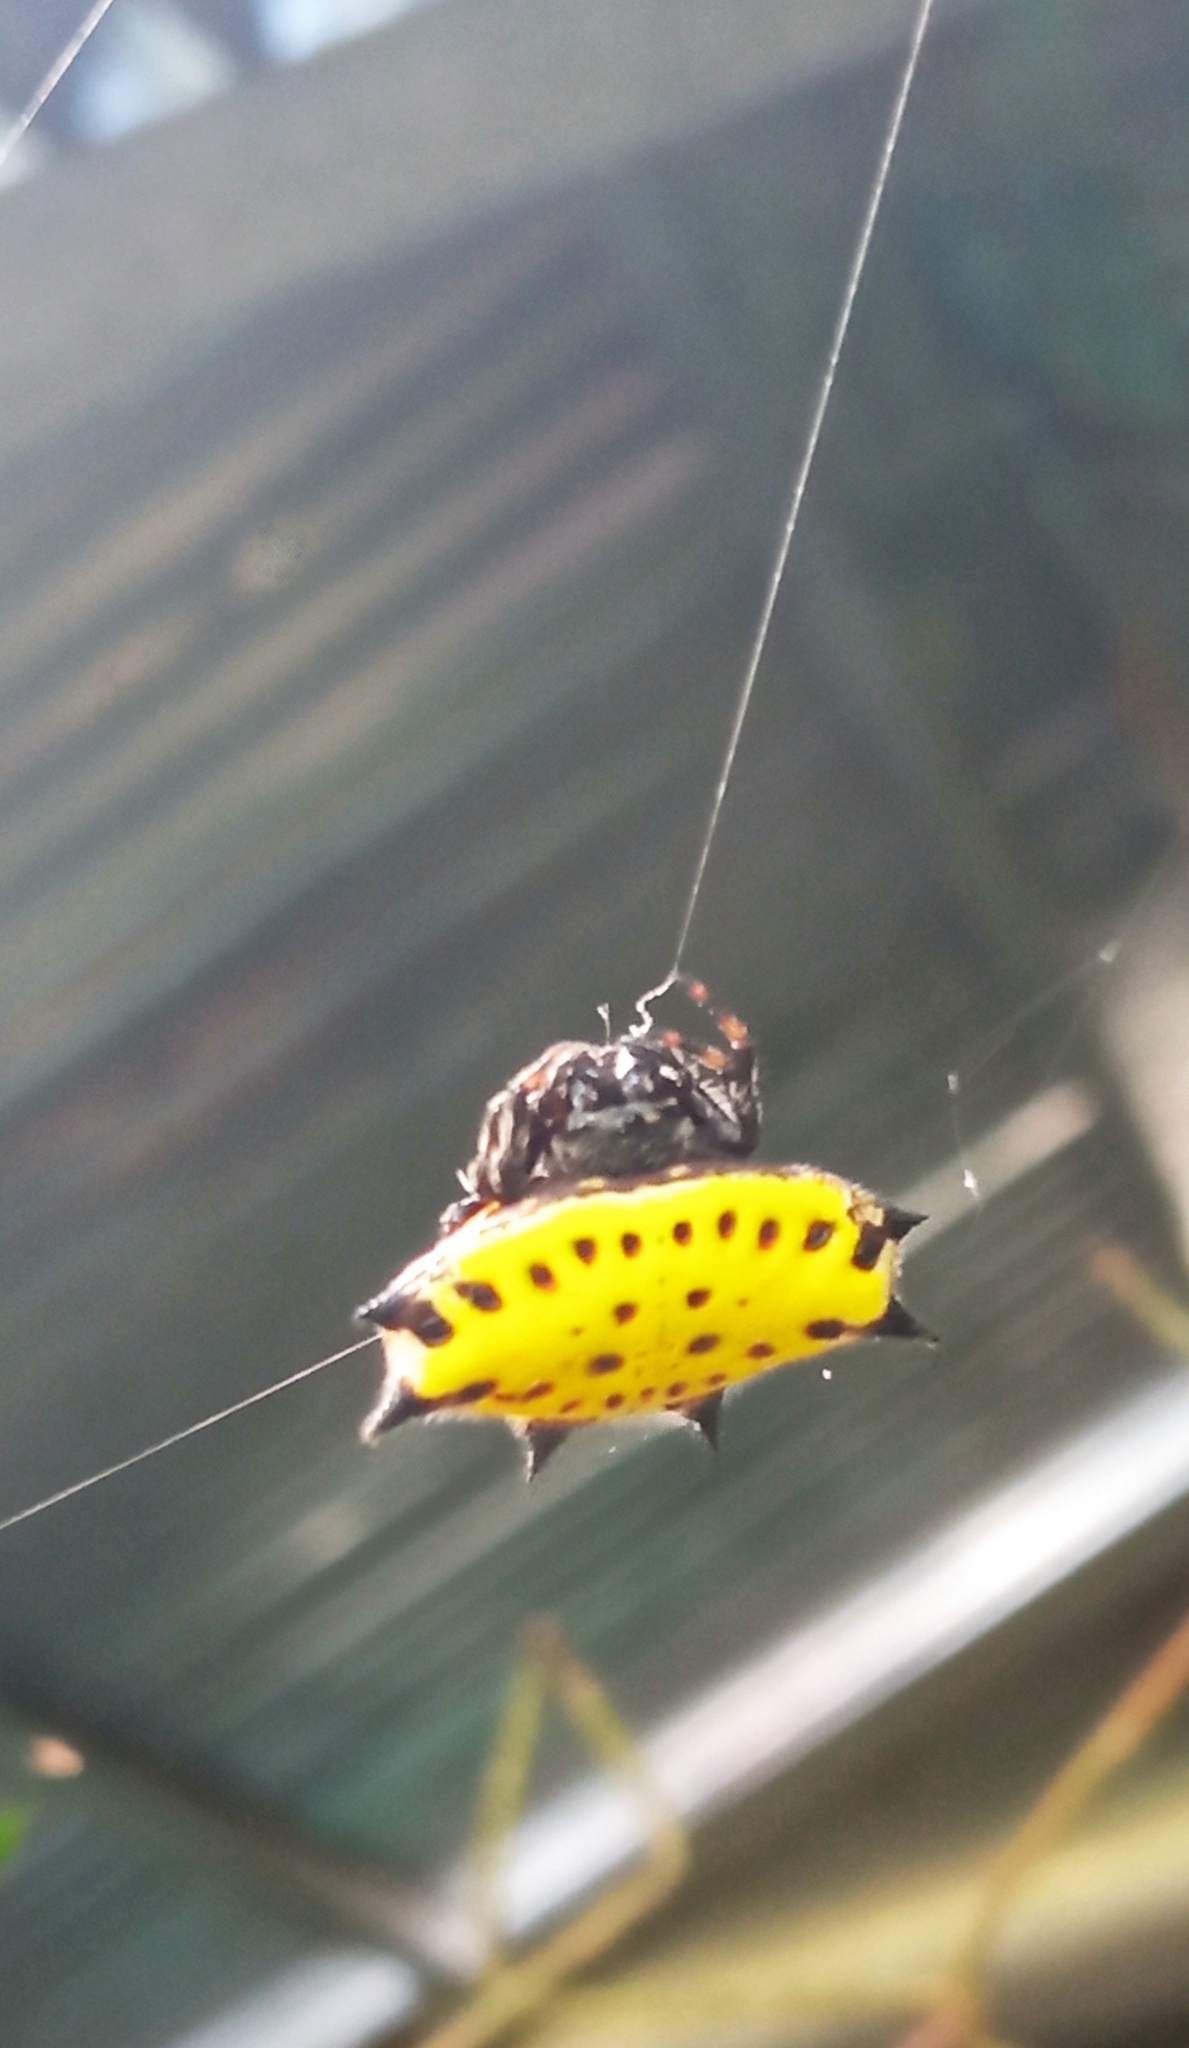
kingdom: Animalia
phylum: Arthropoda
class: Arachnida
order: Araneae
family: Araneidae
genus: Gasteracantha
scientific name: Gasteracantha cancriformis
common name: Orb weavers
